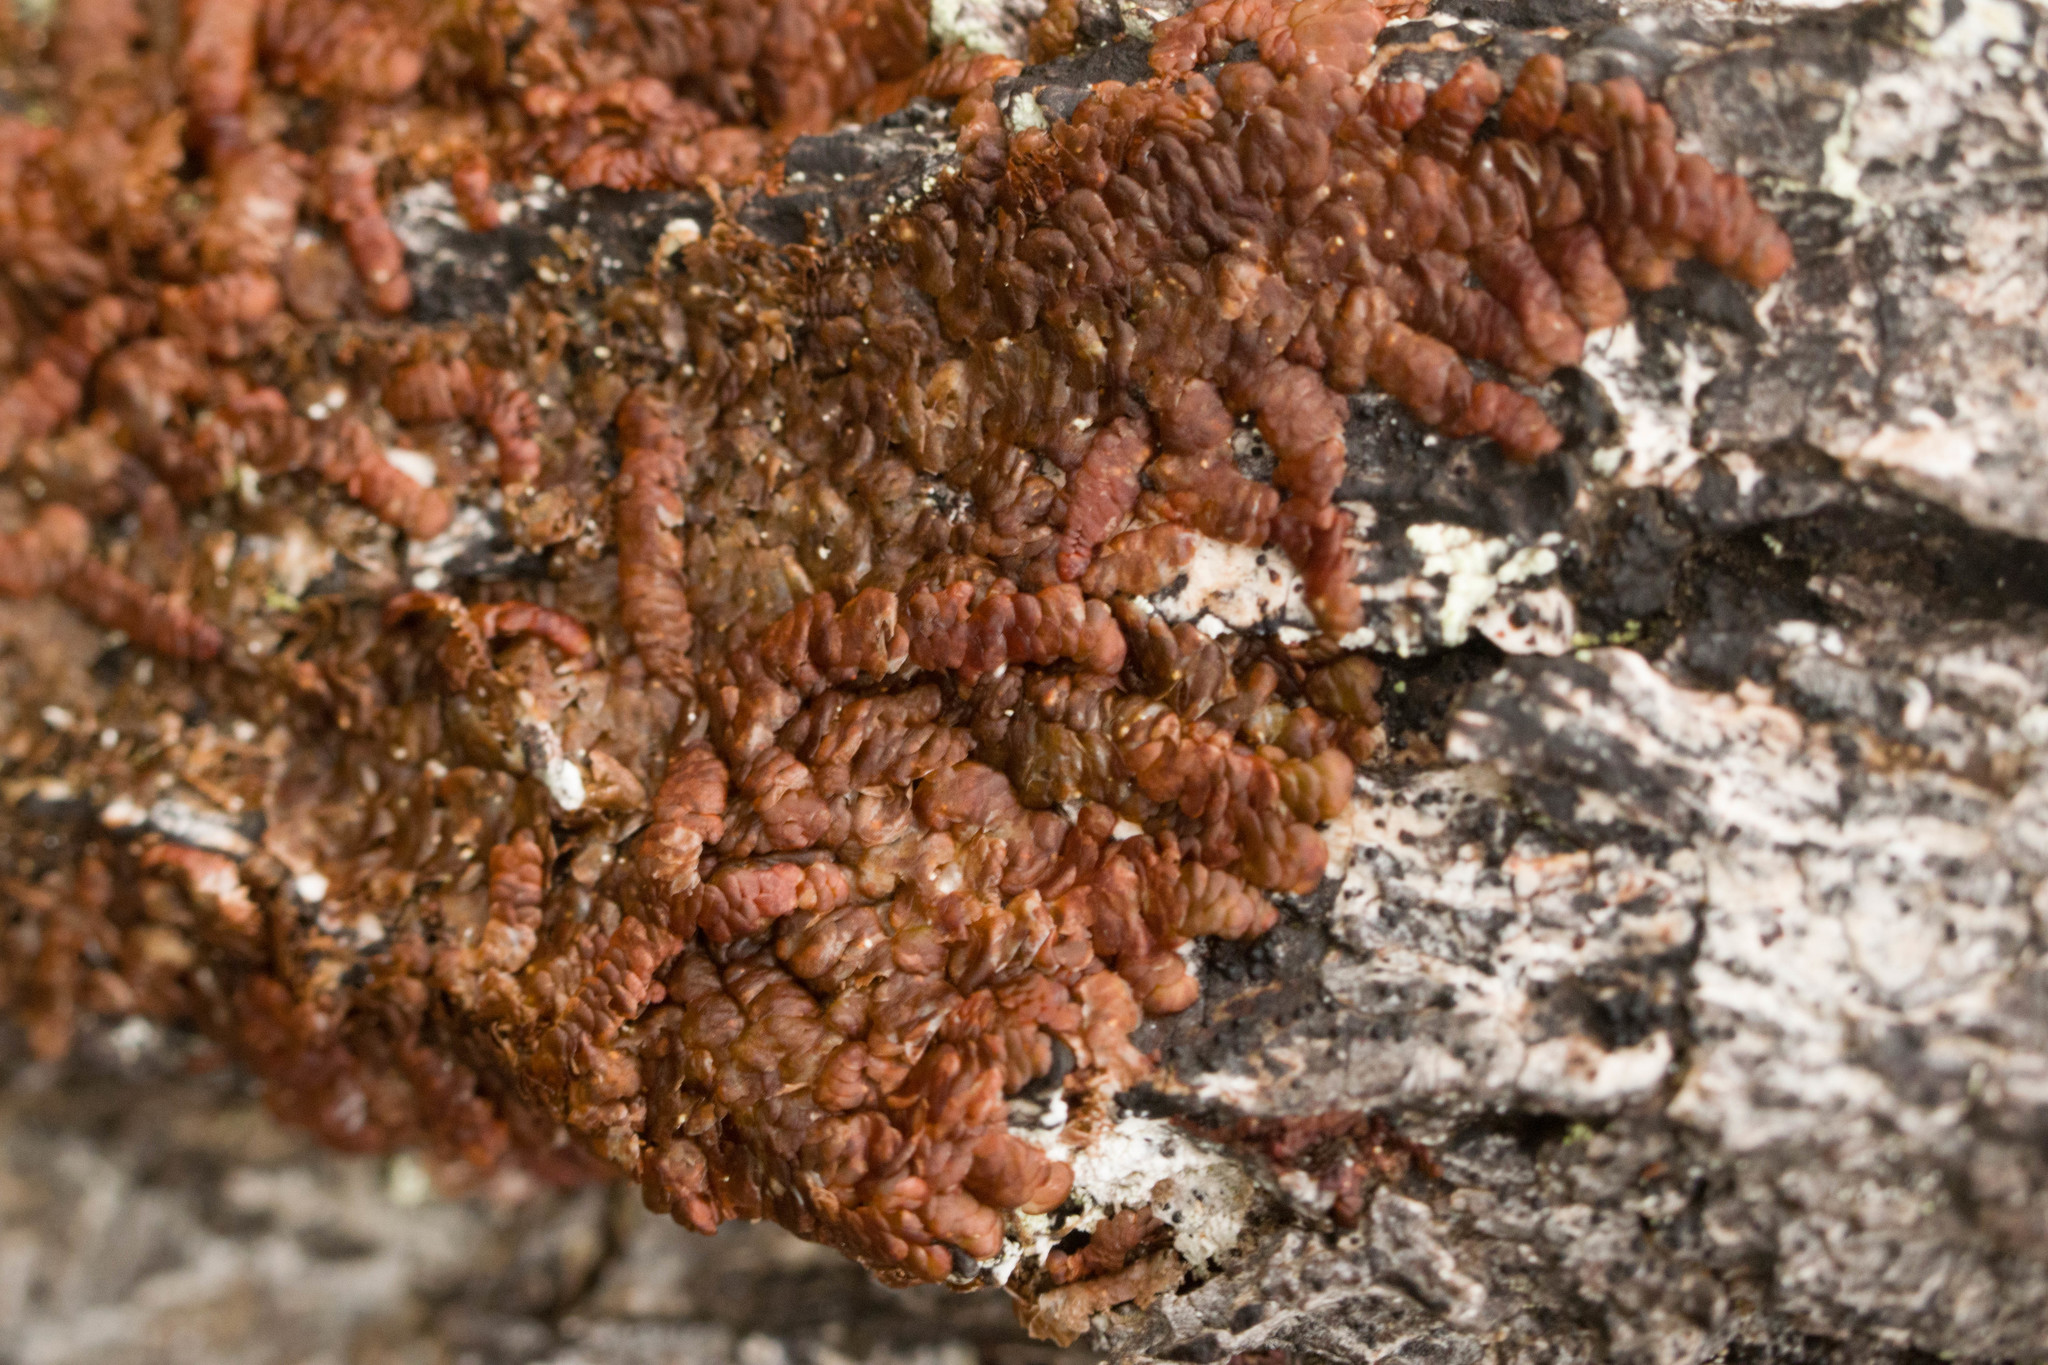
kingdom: Plantae
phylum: Marchantiophyta
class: Jungermanniopsida
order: Porellales
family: Frullaniaceae
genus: Frullania
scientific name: Frullania hypoleuca
